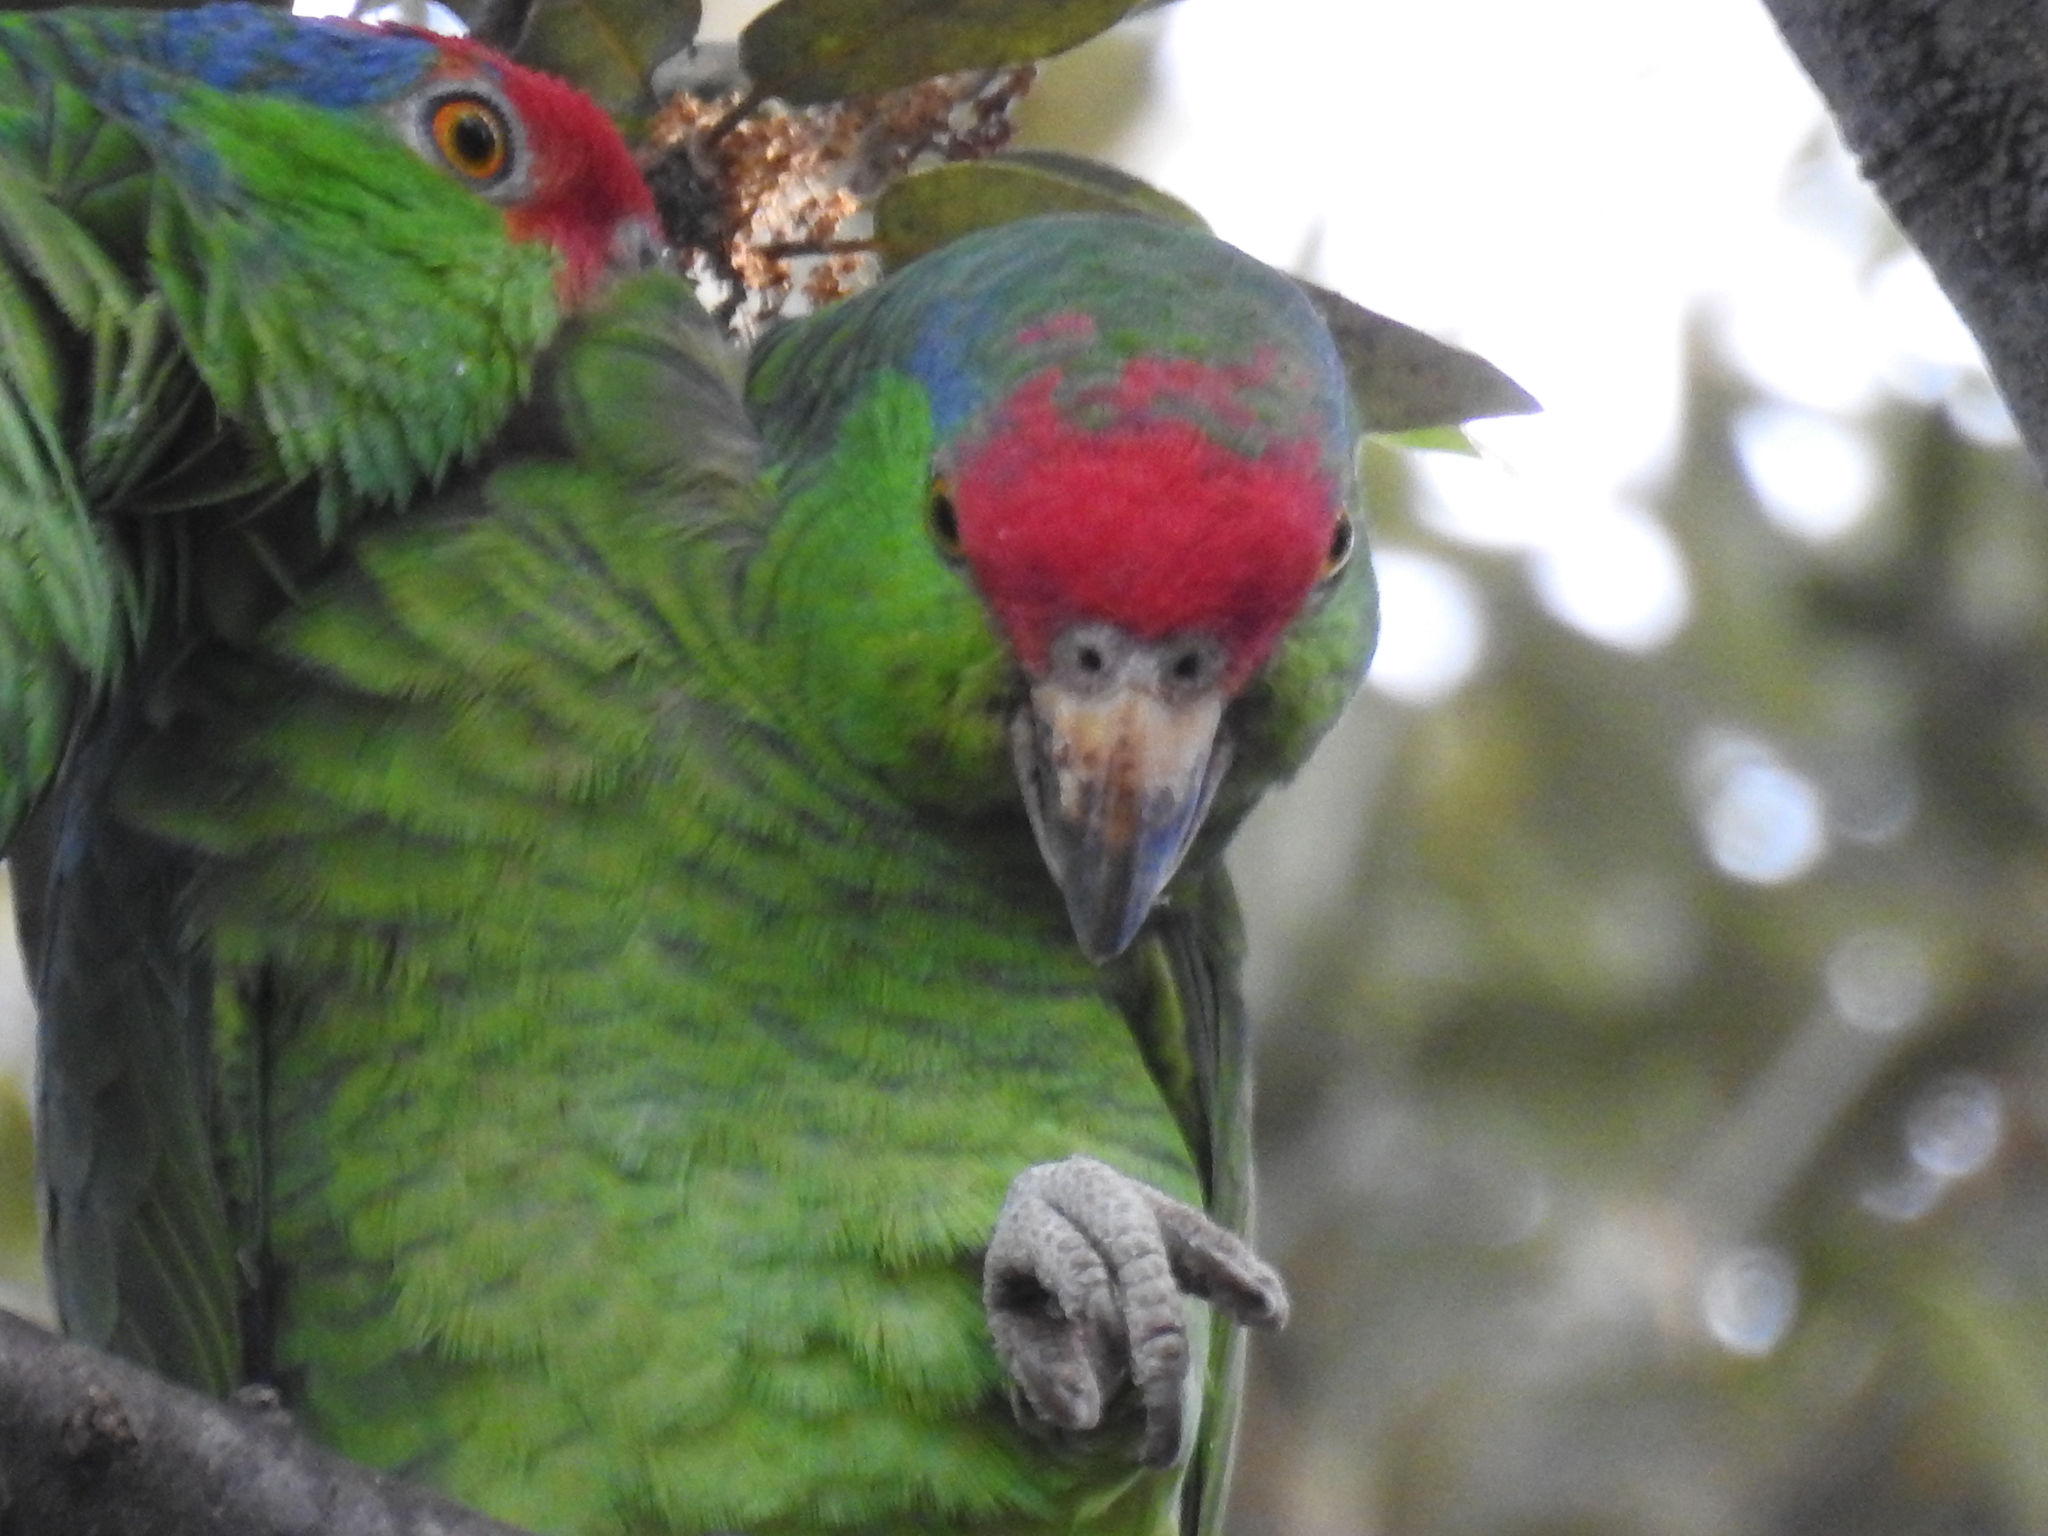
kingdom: Animalia
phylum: Chordata
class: Aves
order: Psittaciformes
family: Psittacidae
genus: Amazona
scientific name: Amazona viridigenalis
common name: Red-crowned amazon
